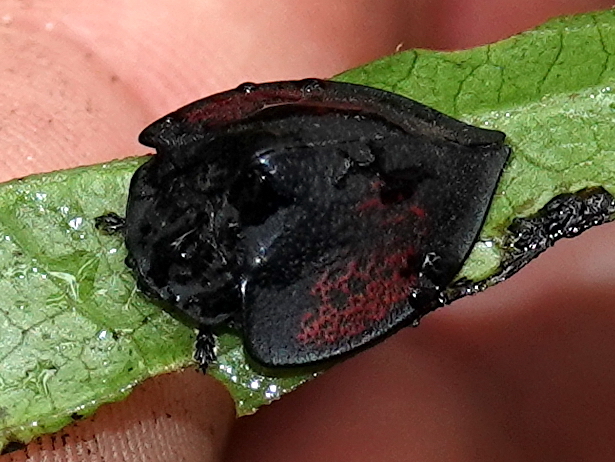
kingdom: Animalia
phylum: Arthropoda
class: Insecta
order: Coleoptera
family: Chrysomelidae
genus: Cyrtonota
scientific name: Cyrtonota moderata
